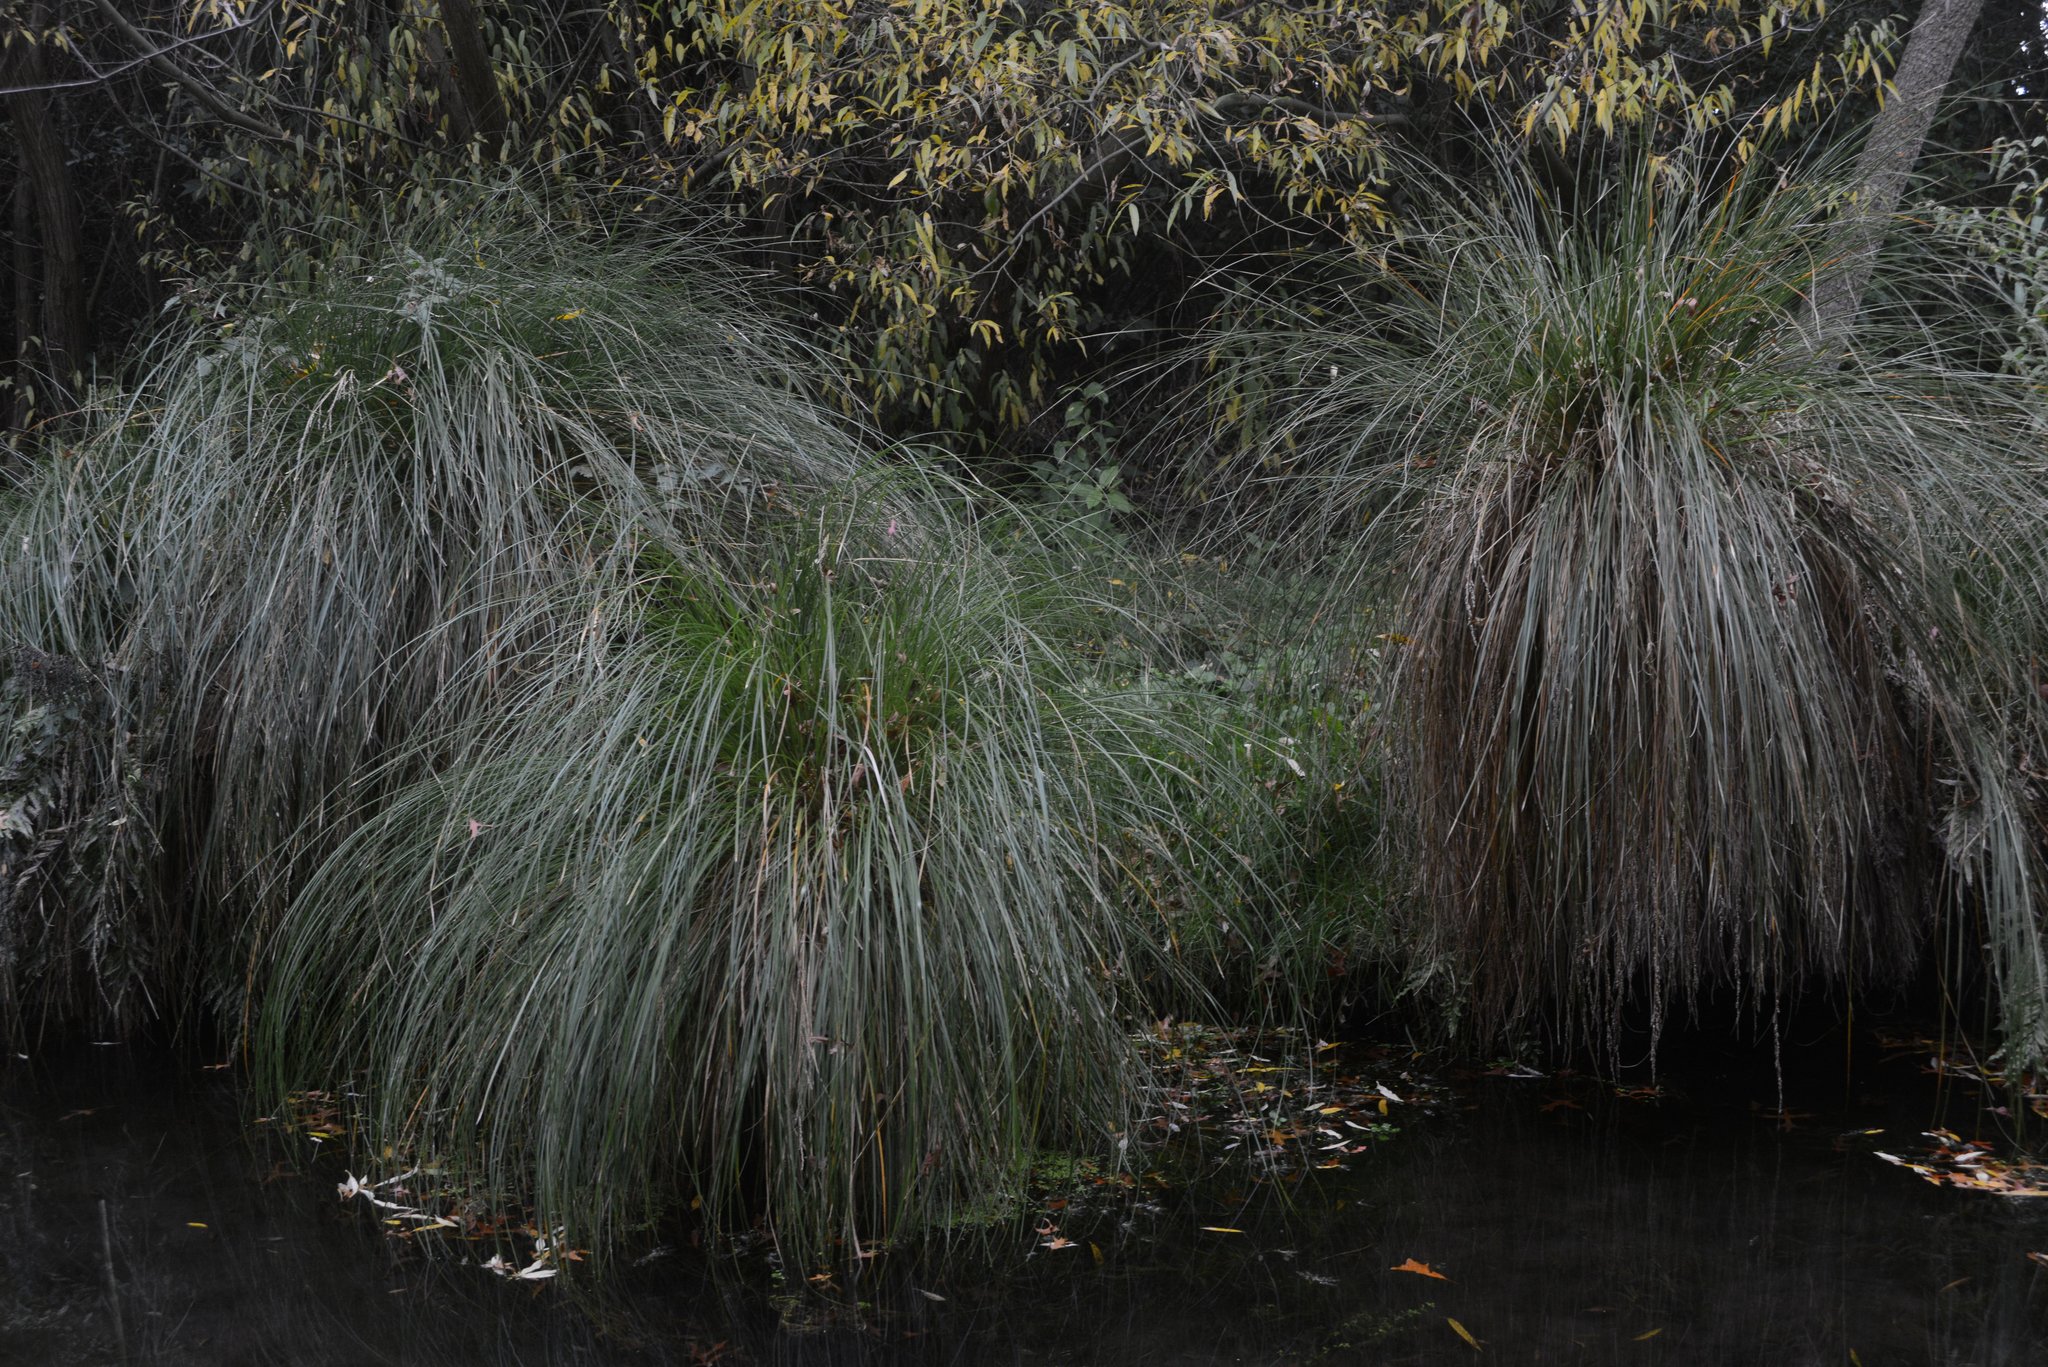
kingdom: Plantae
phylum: Tracheophyta
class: Liliopsida
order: Poales
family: Cyperaceae
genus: Carex
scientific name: Carex secta
